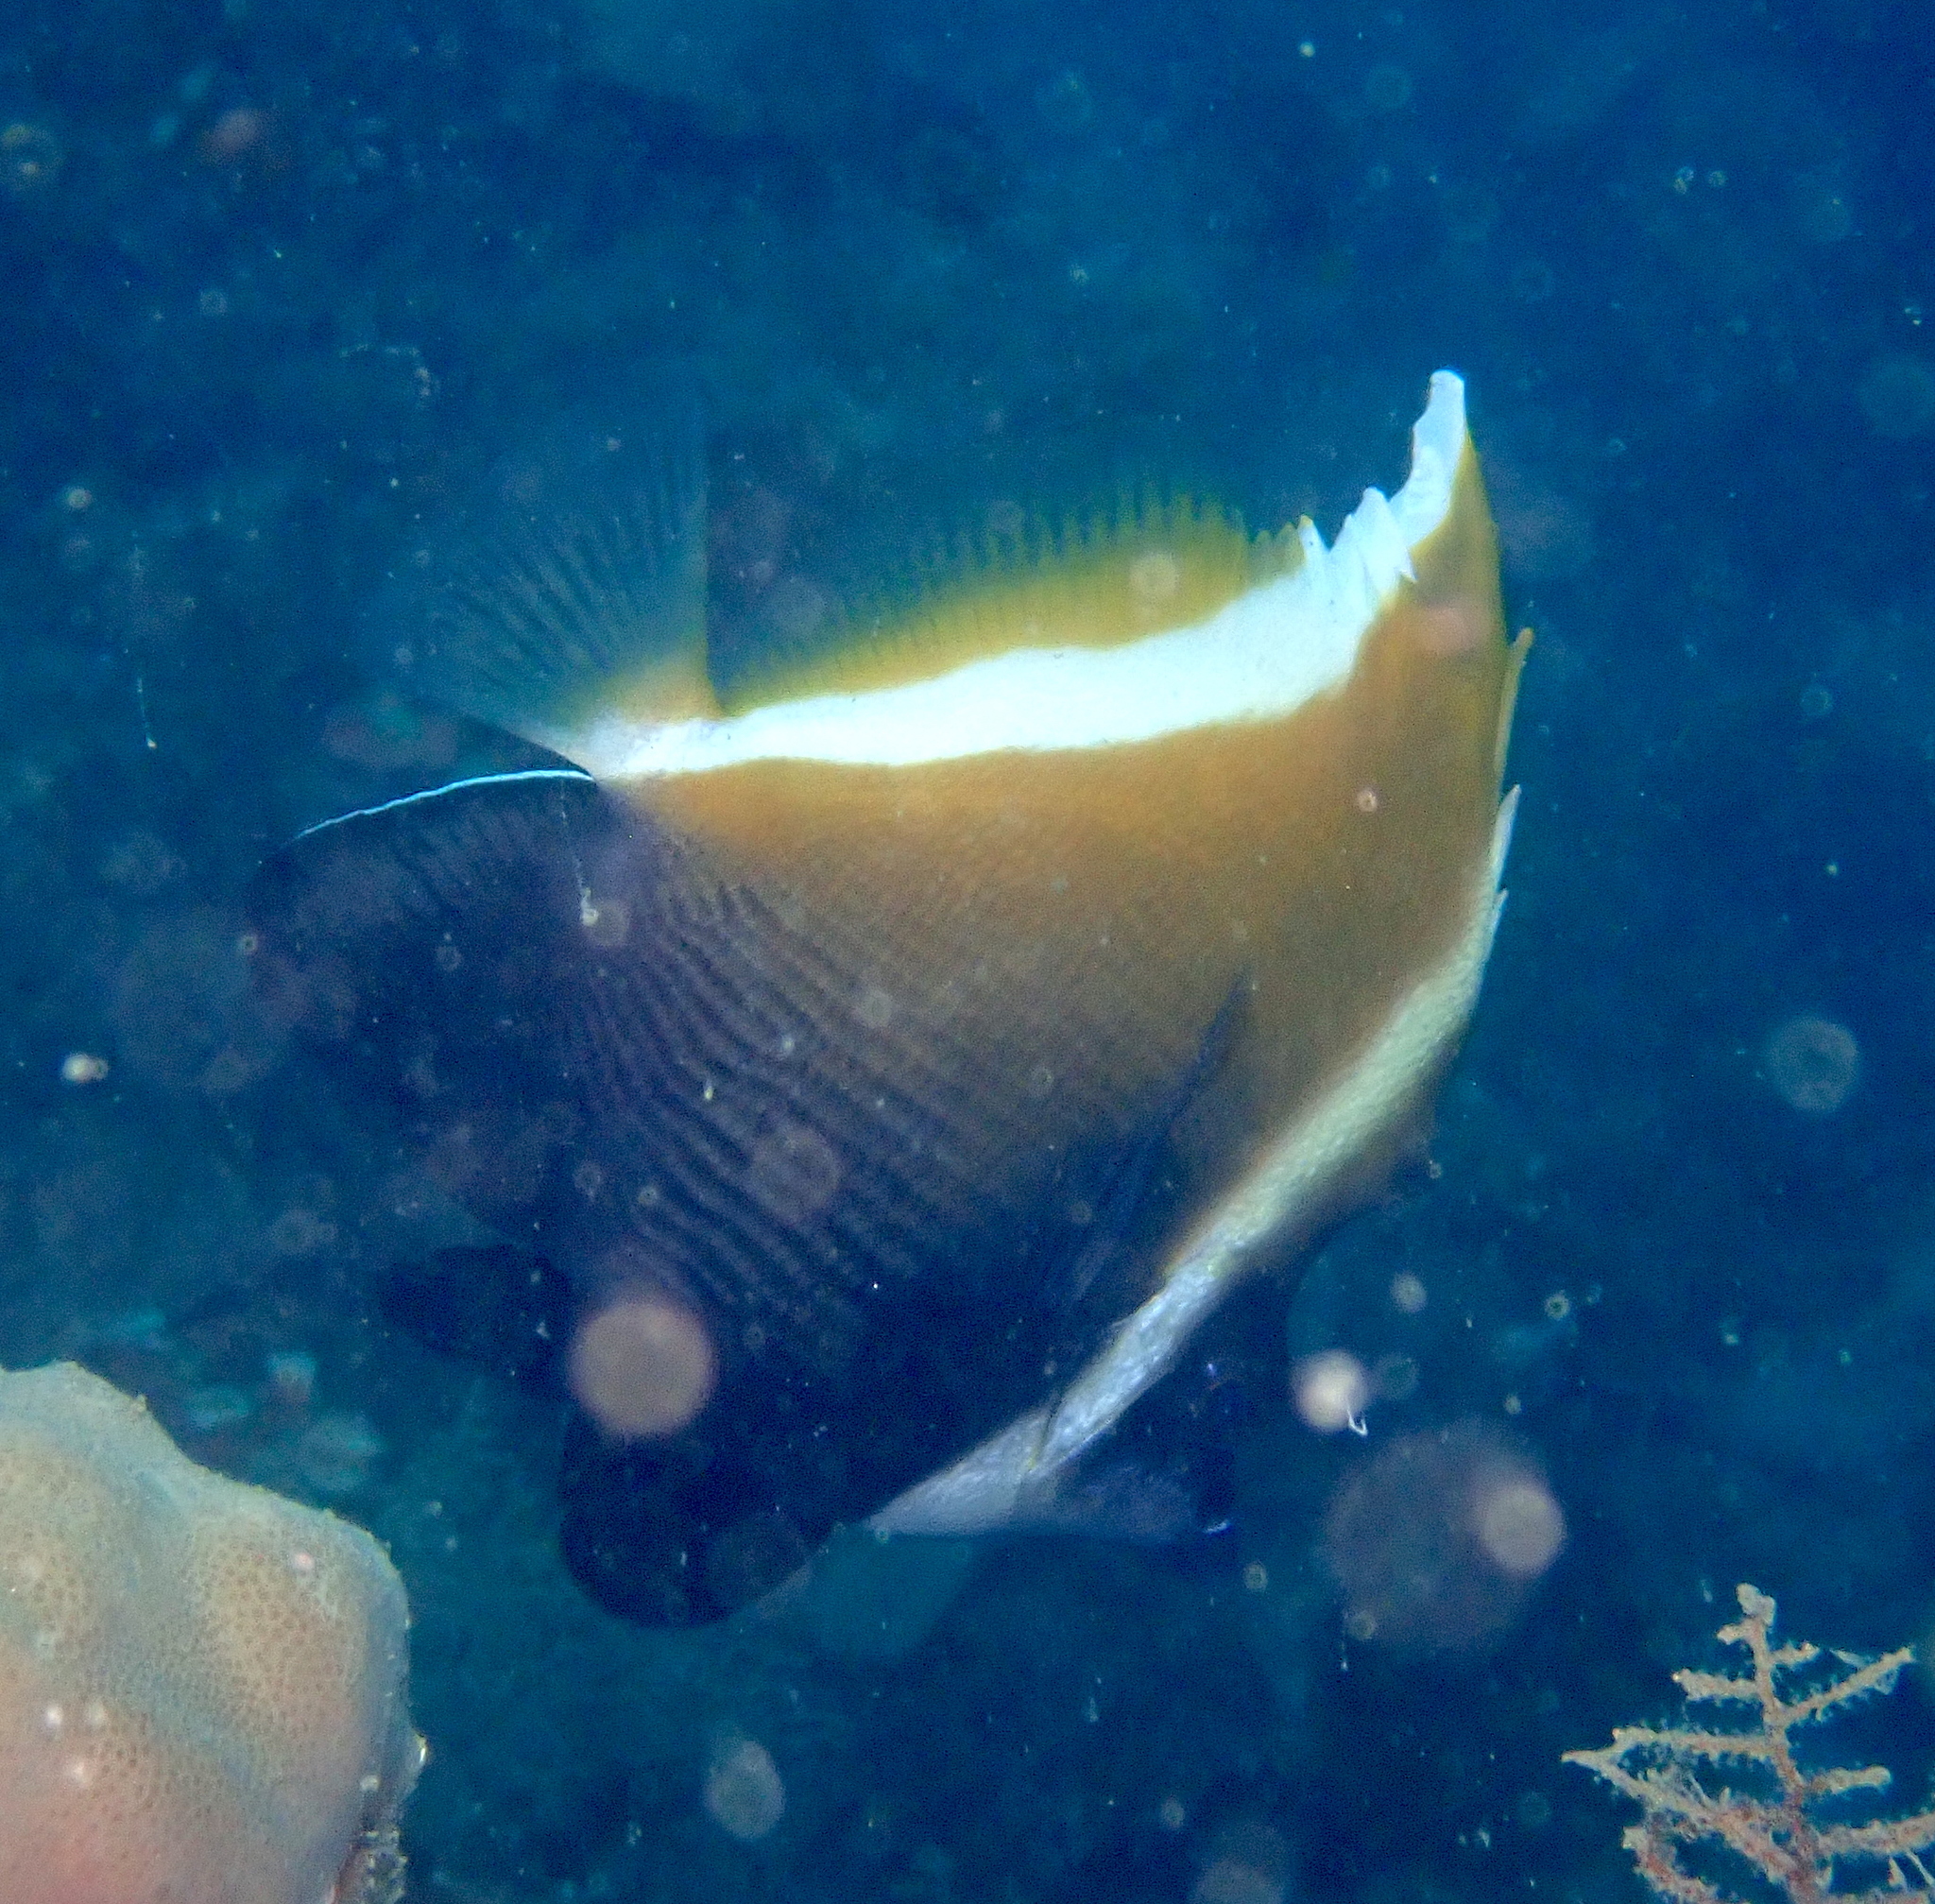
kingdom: Animalia
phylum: Chordata
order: Perciformes
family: Chaetodontidae
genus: Heniochus
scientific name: Heniochus varius
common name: Horned bannerfish
